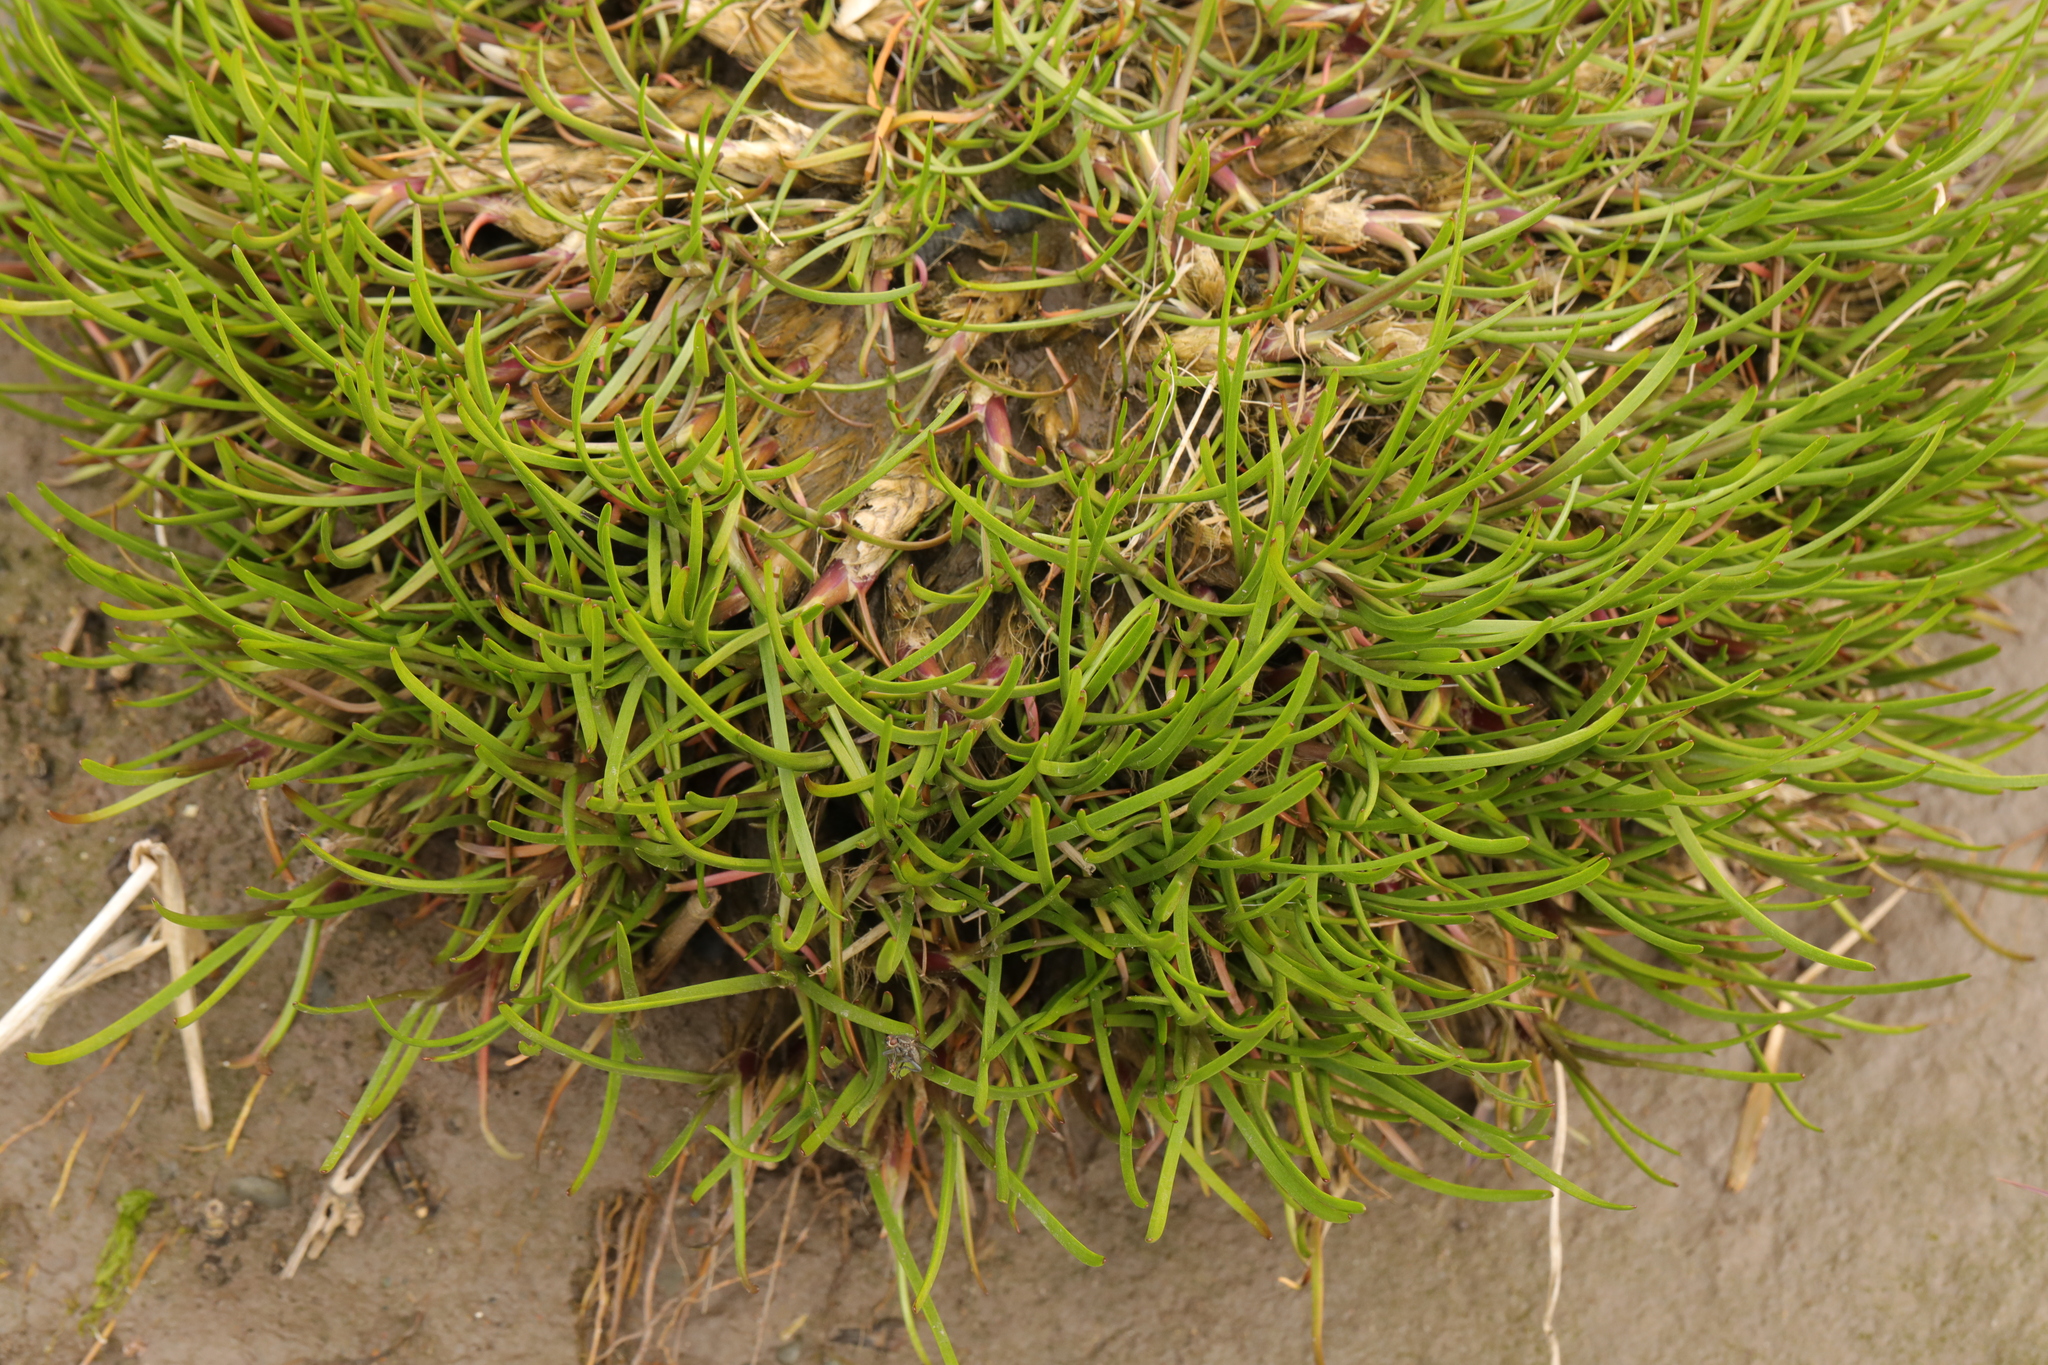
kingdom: Plantae
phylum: Tracheophyta
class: Magnoliopsida
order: Lamiales
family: Plantaginaceae
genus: Plantago
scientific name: Plantago maritima
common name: Sea plantain
